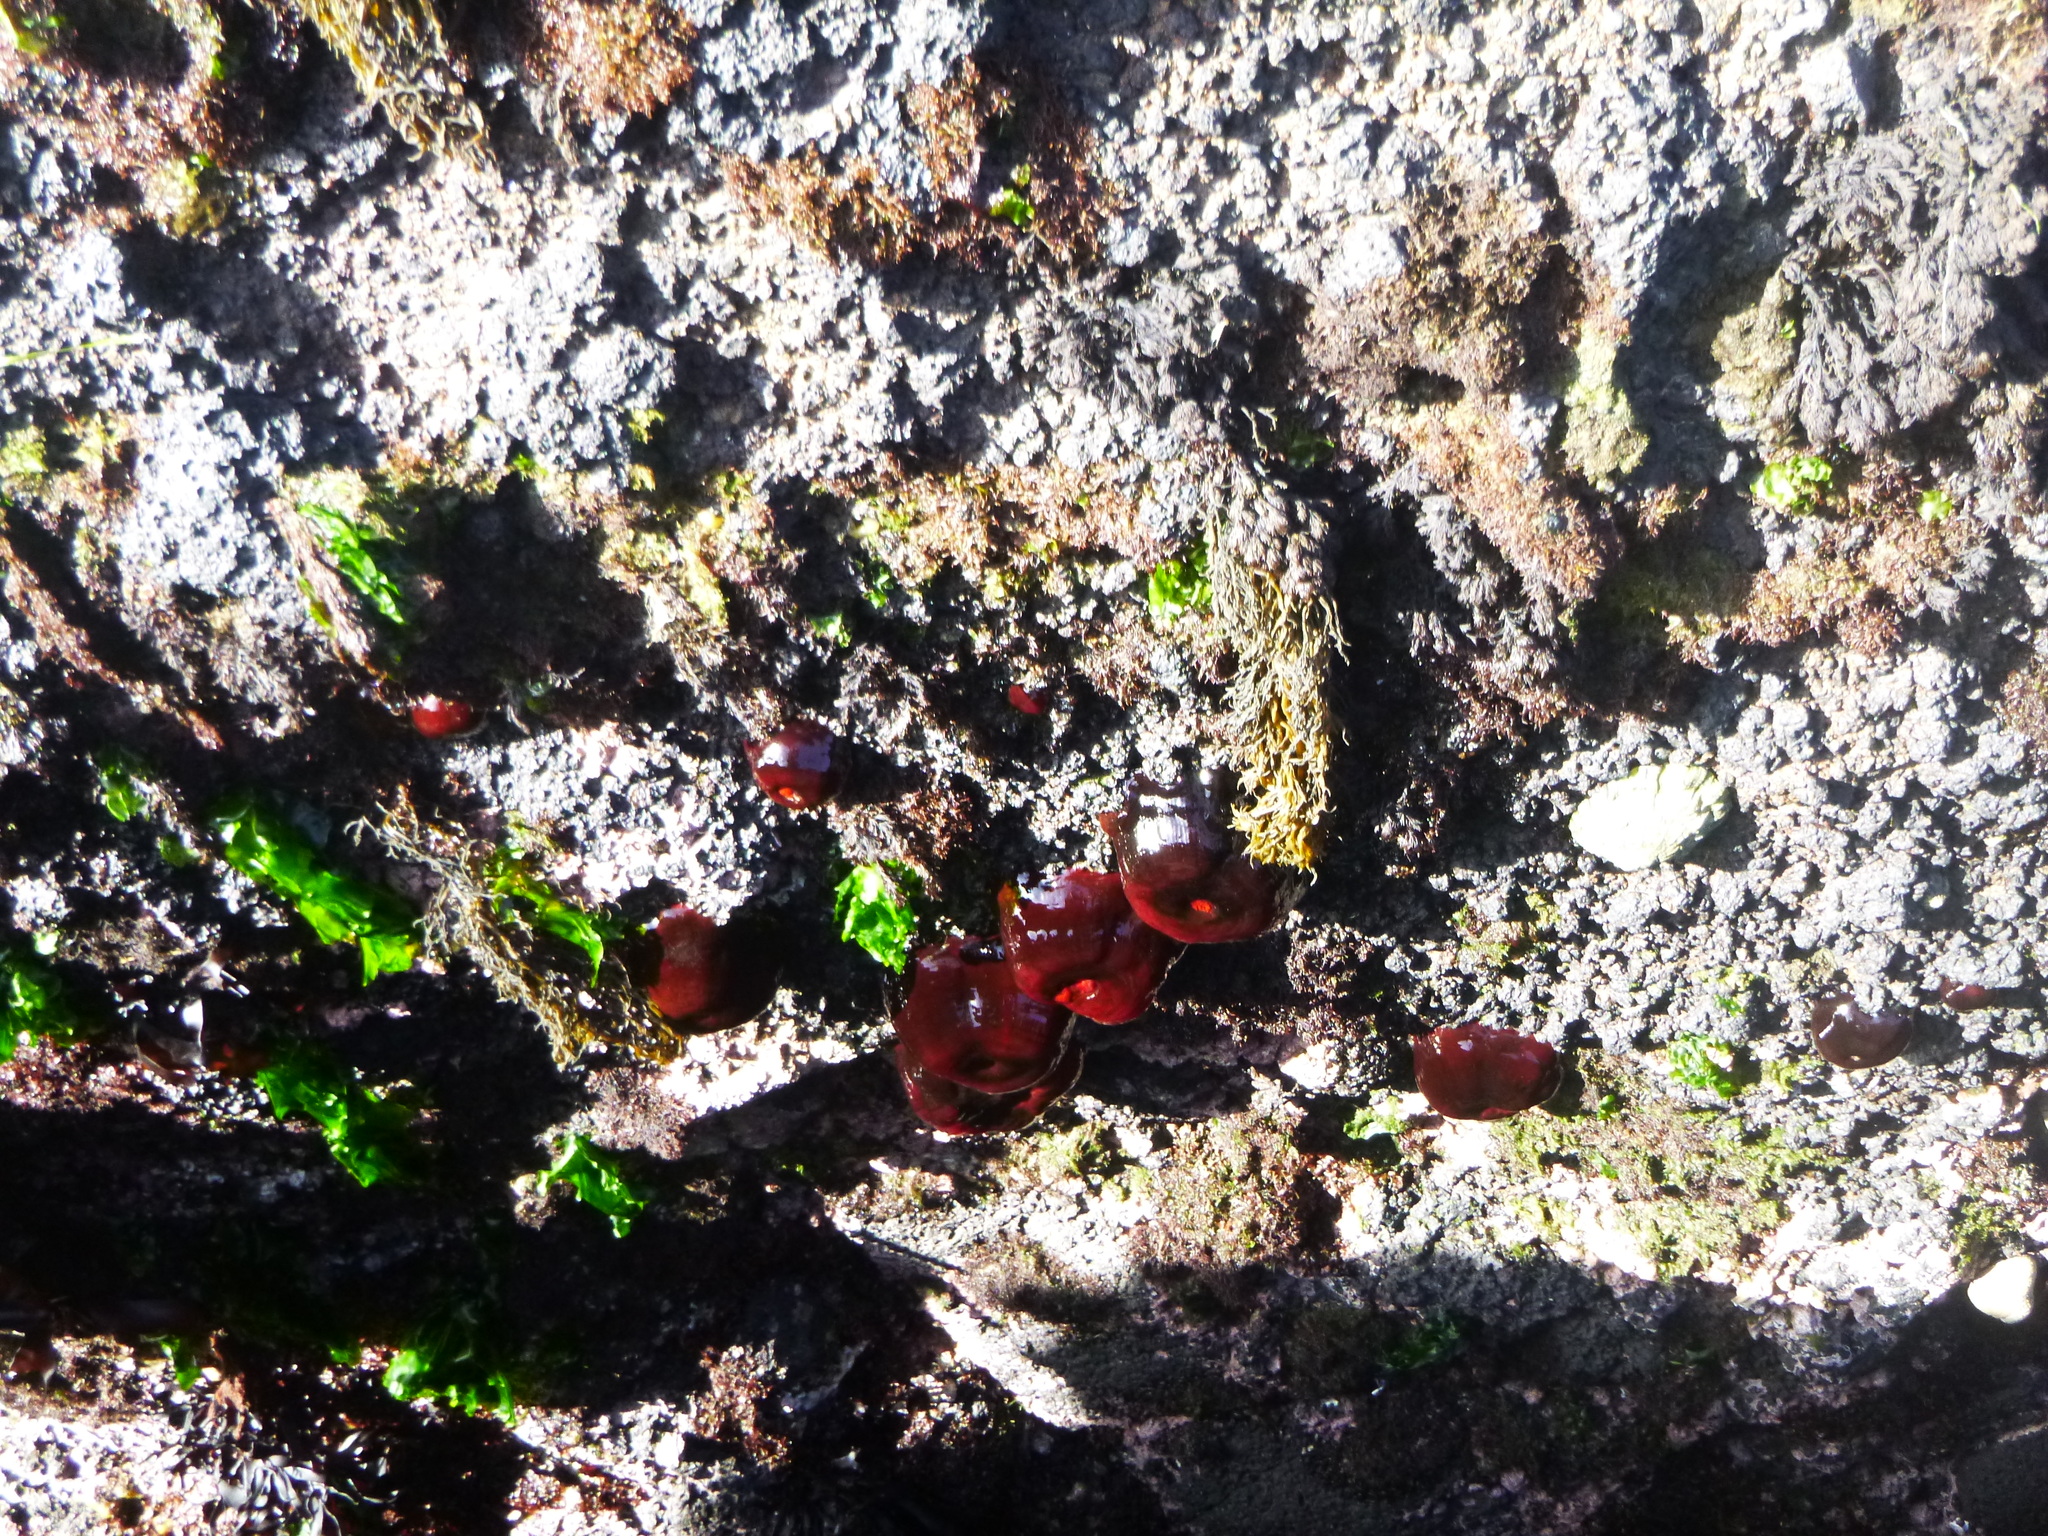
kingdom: Animalia
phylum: Cnidaria
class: Anthozoa
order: Actiniaria
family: Actiniidae
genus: Actinia
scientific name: Actinia tenebrosa
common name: Waratah anemone
